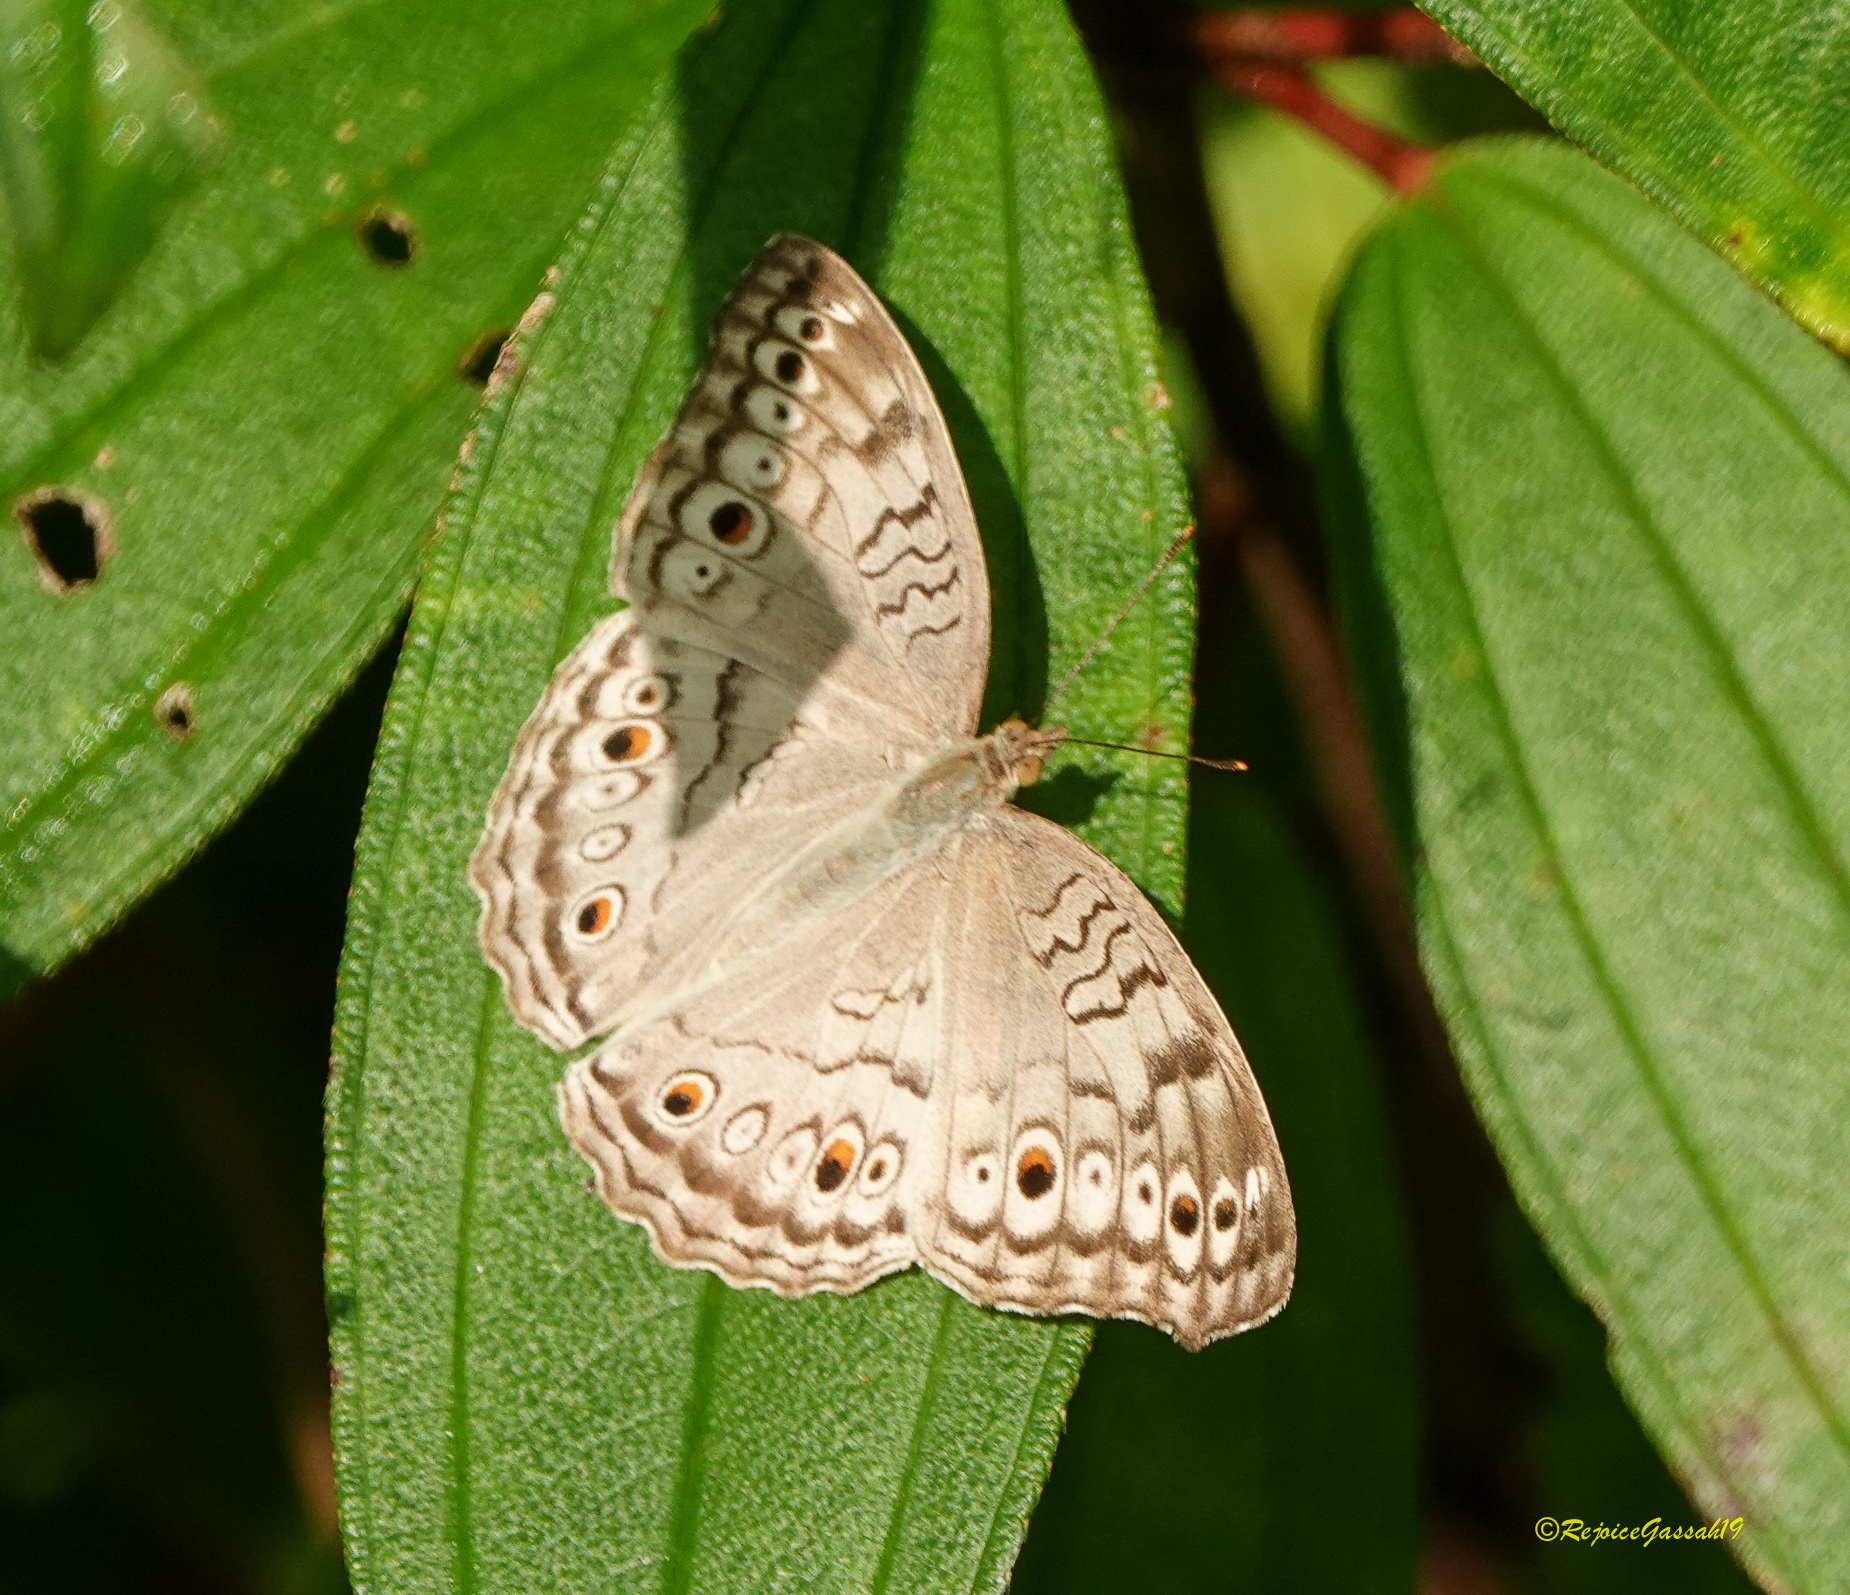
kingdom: Animalia
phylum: Arthropoda
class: Insecta
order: Lepidoptera
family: Nymphalidae
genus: Junonia
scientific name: Junonia atlites
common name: Grey pansy
